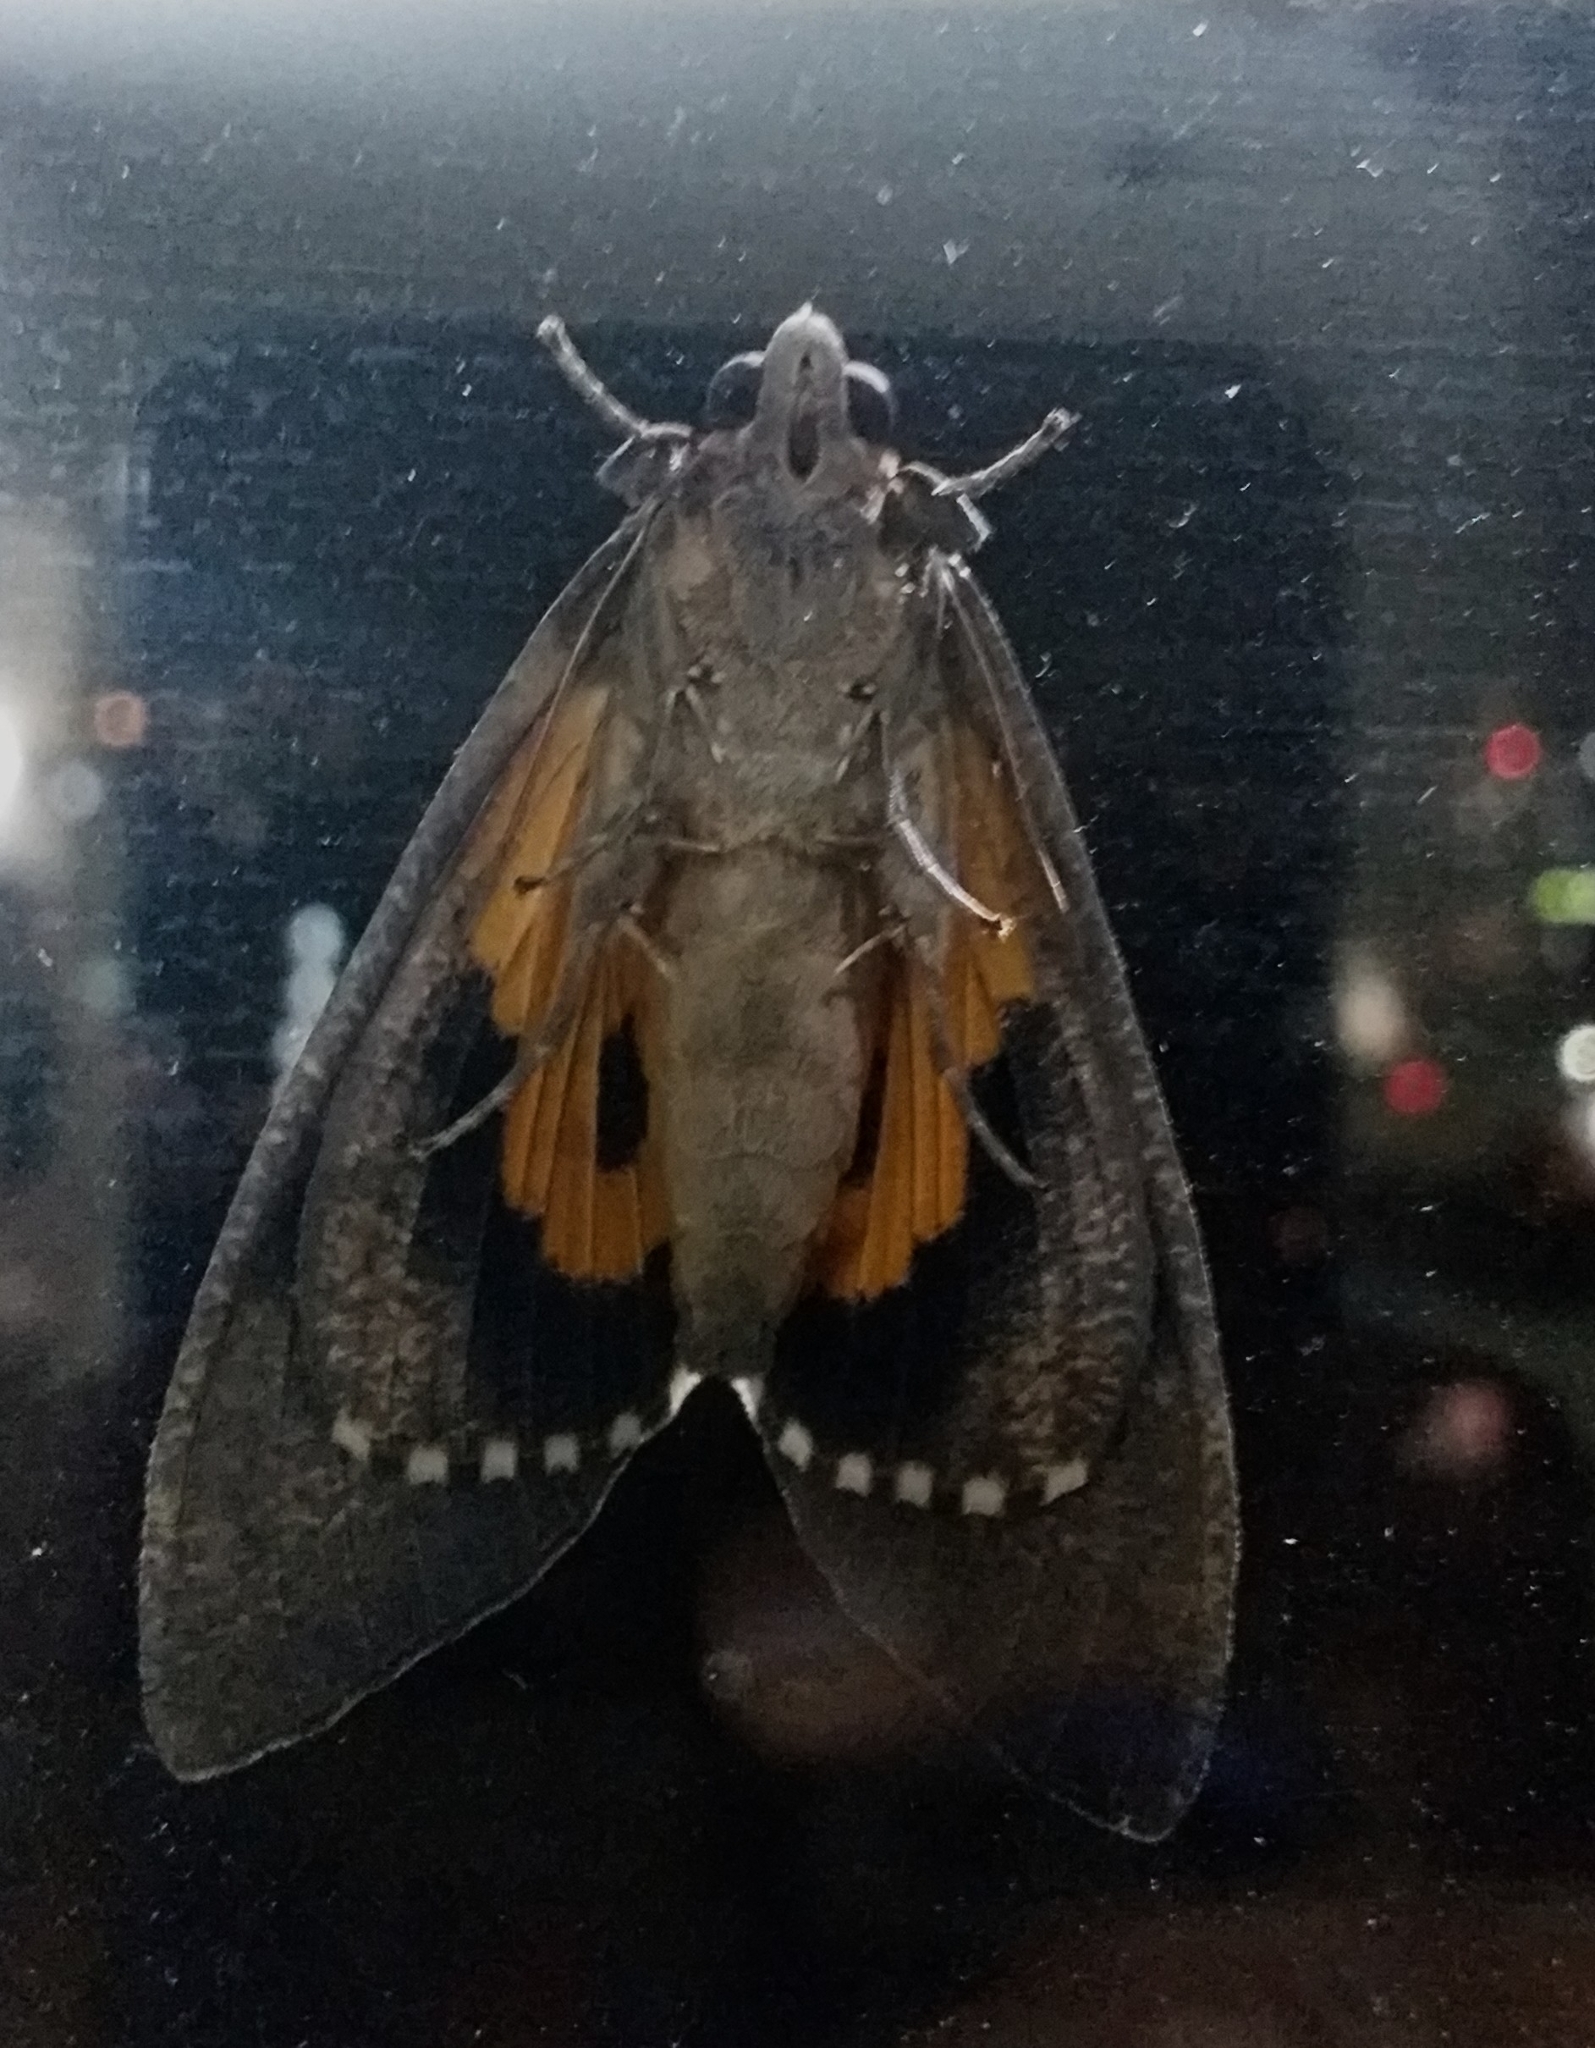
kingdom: Animalia
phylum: Arthropoda
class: Insecta
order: Lepidoptera
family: Erebidae
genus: Eudocima
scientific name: Eudocima phalonia
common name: Wasp
